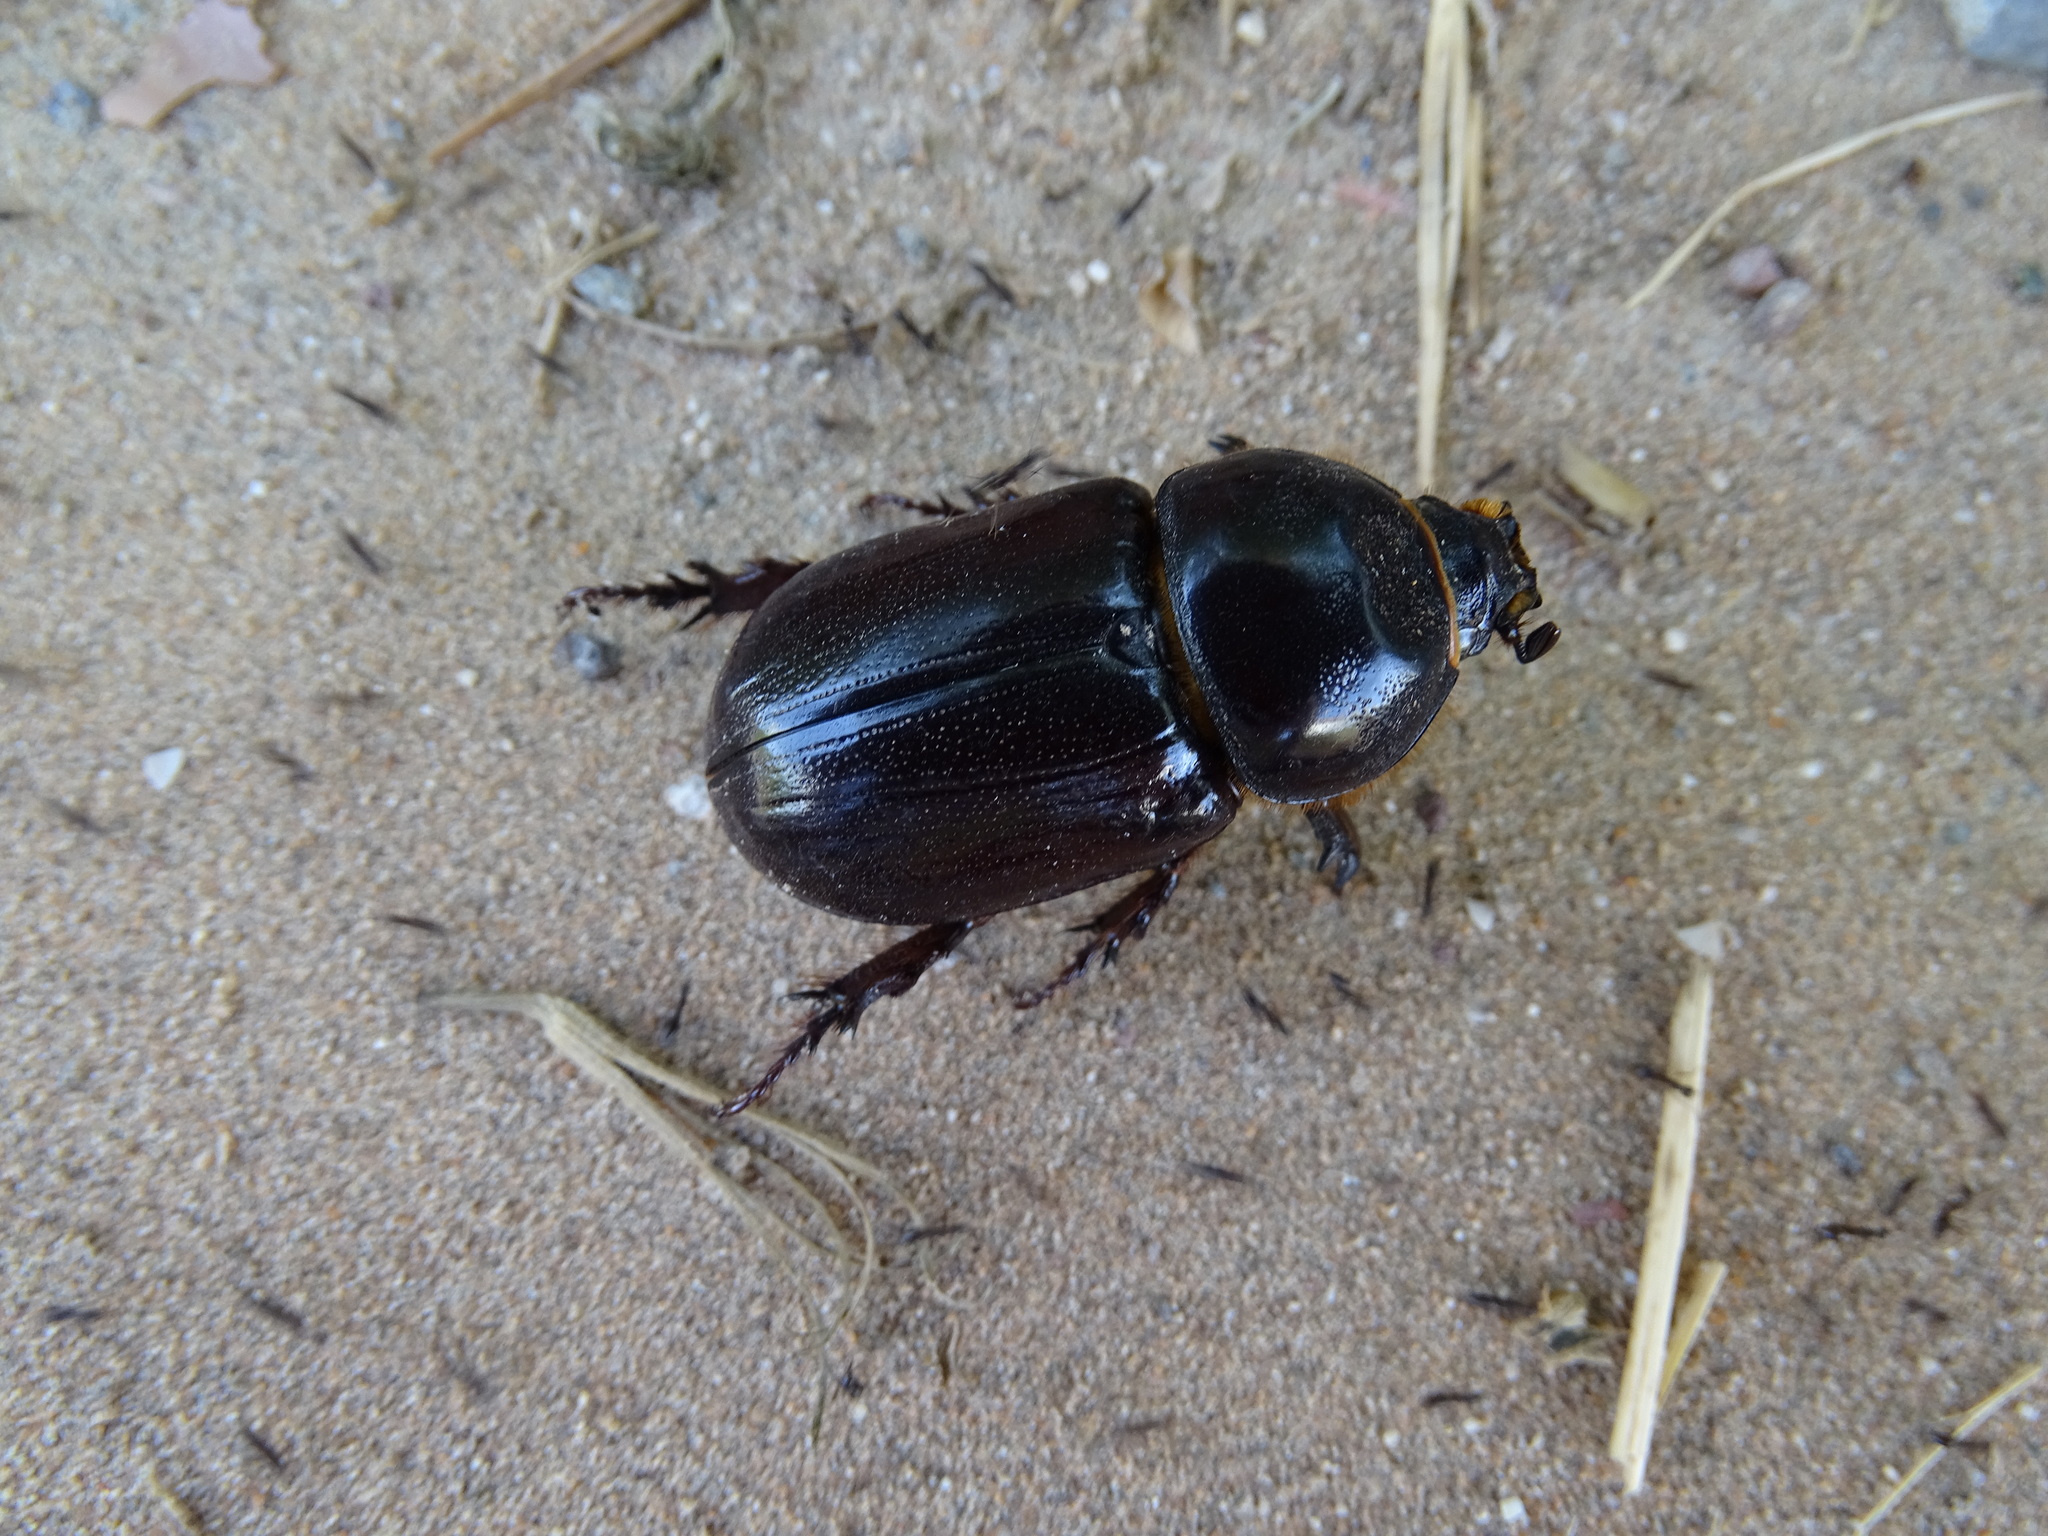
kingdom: Animalia
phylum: Arthropoda
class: Insecta
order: Coleoptera
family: Scarabaeidae
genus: Oryctes
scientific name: Oryctes agamemnon
